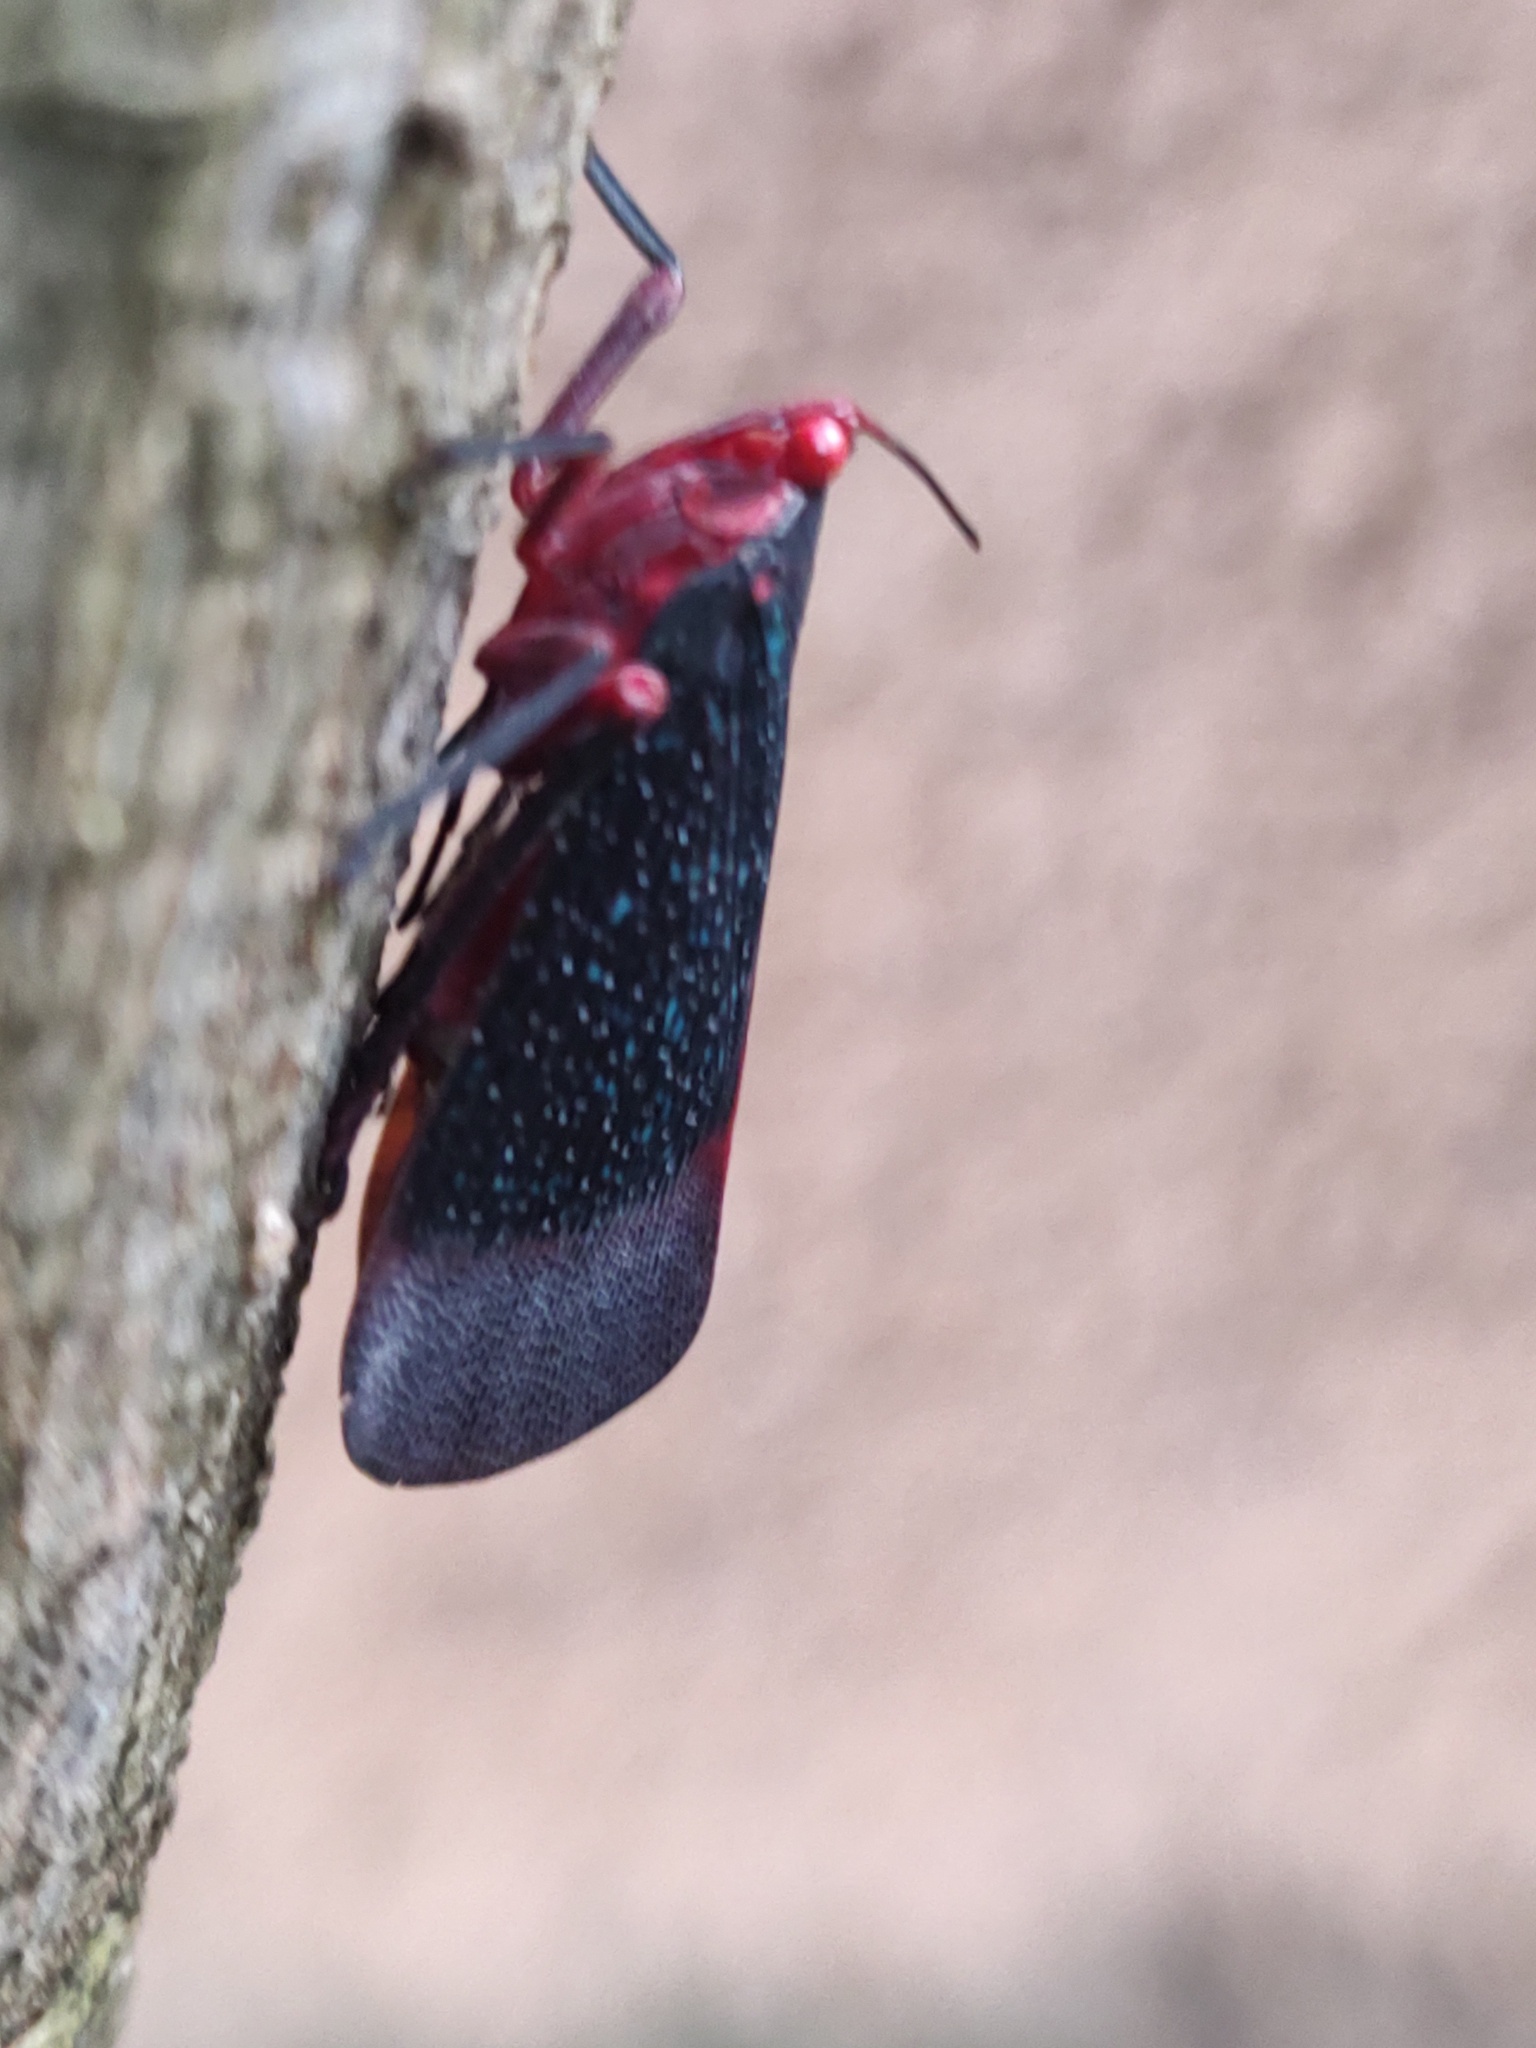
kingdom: Animalia
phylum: Arthropoda
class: Insecta
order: Hemiptera
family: Fulgoridae
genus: Kalidasa
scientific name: Kalidasa lanata
